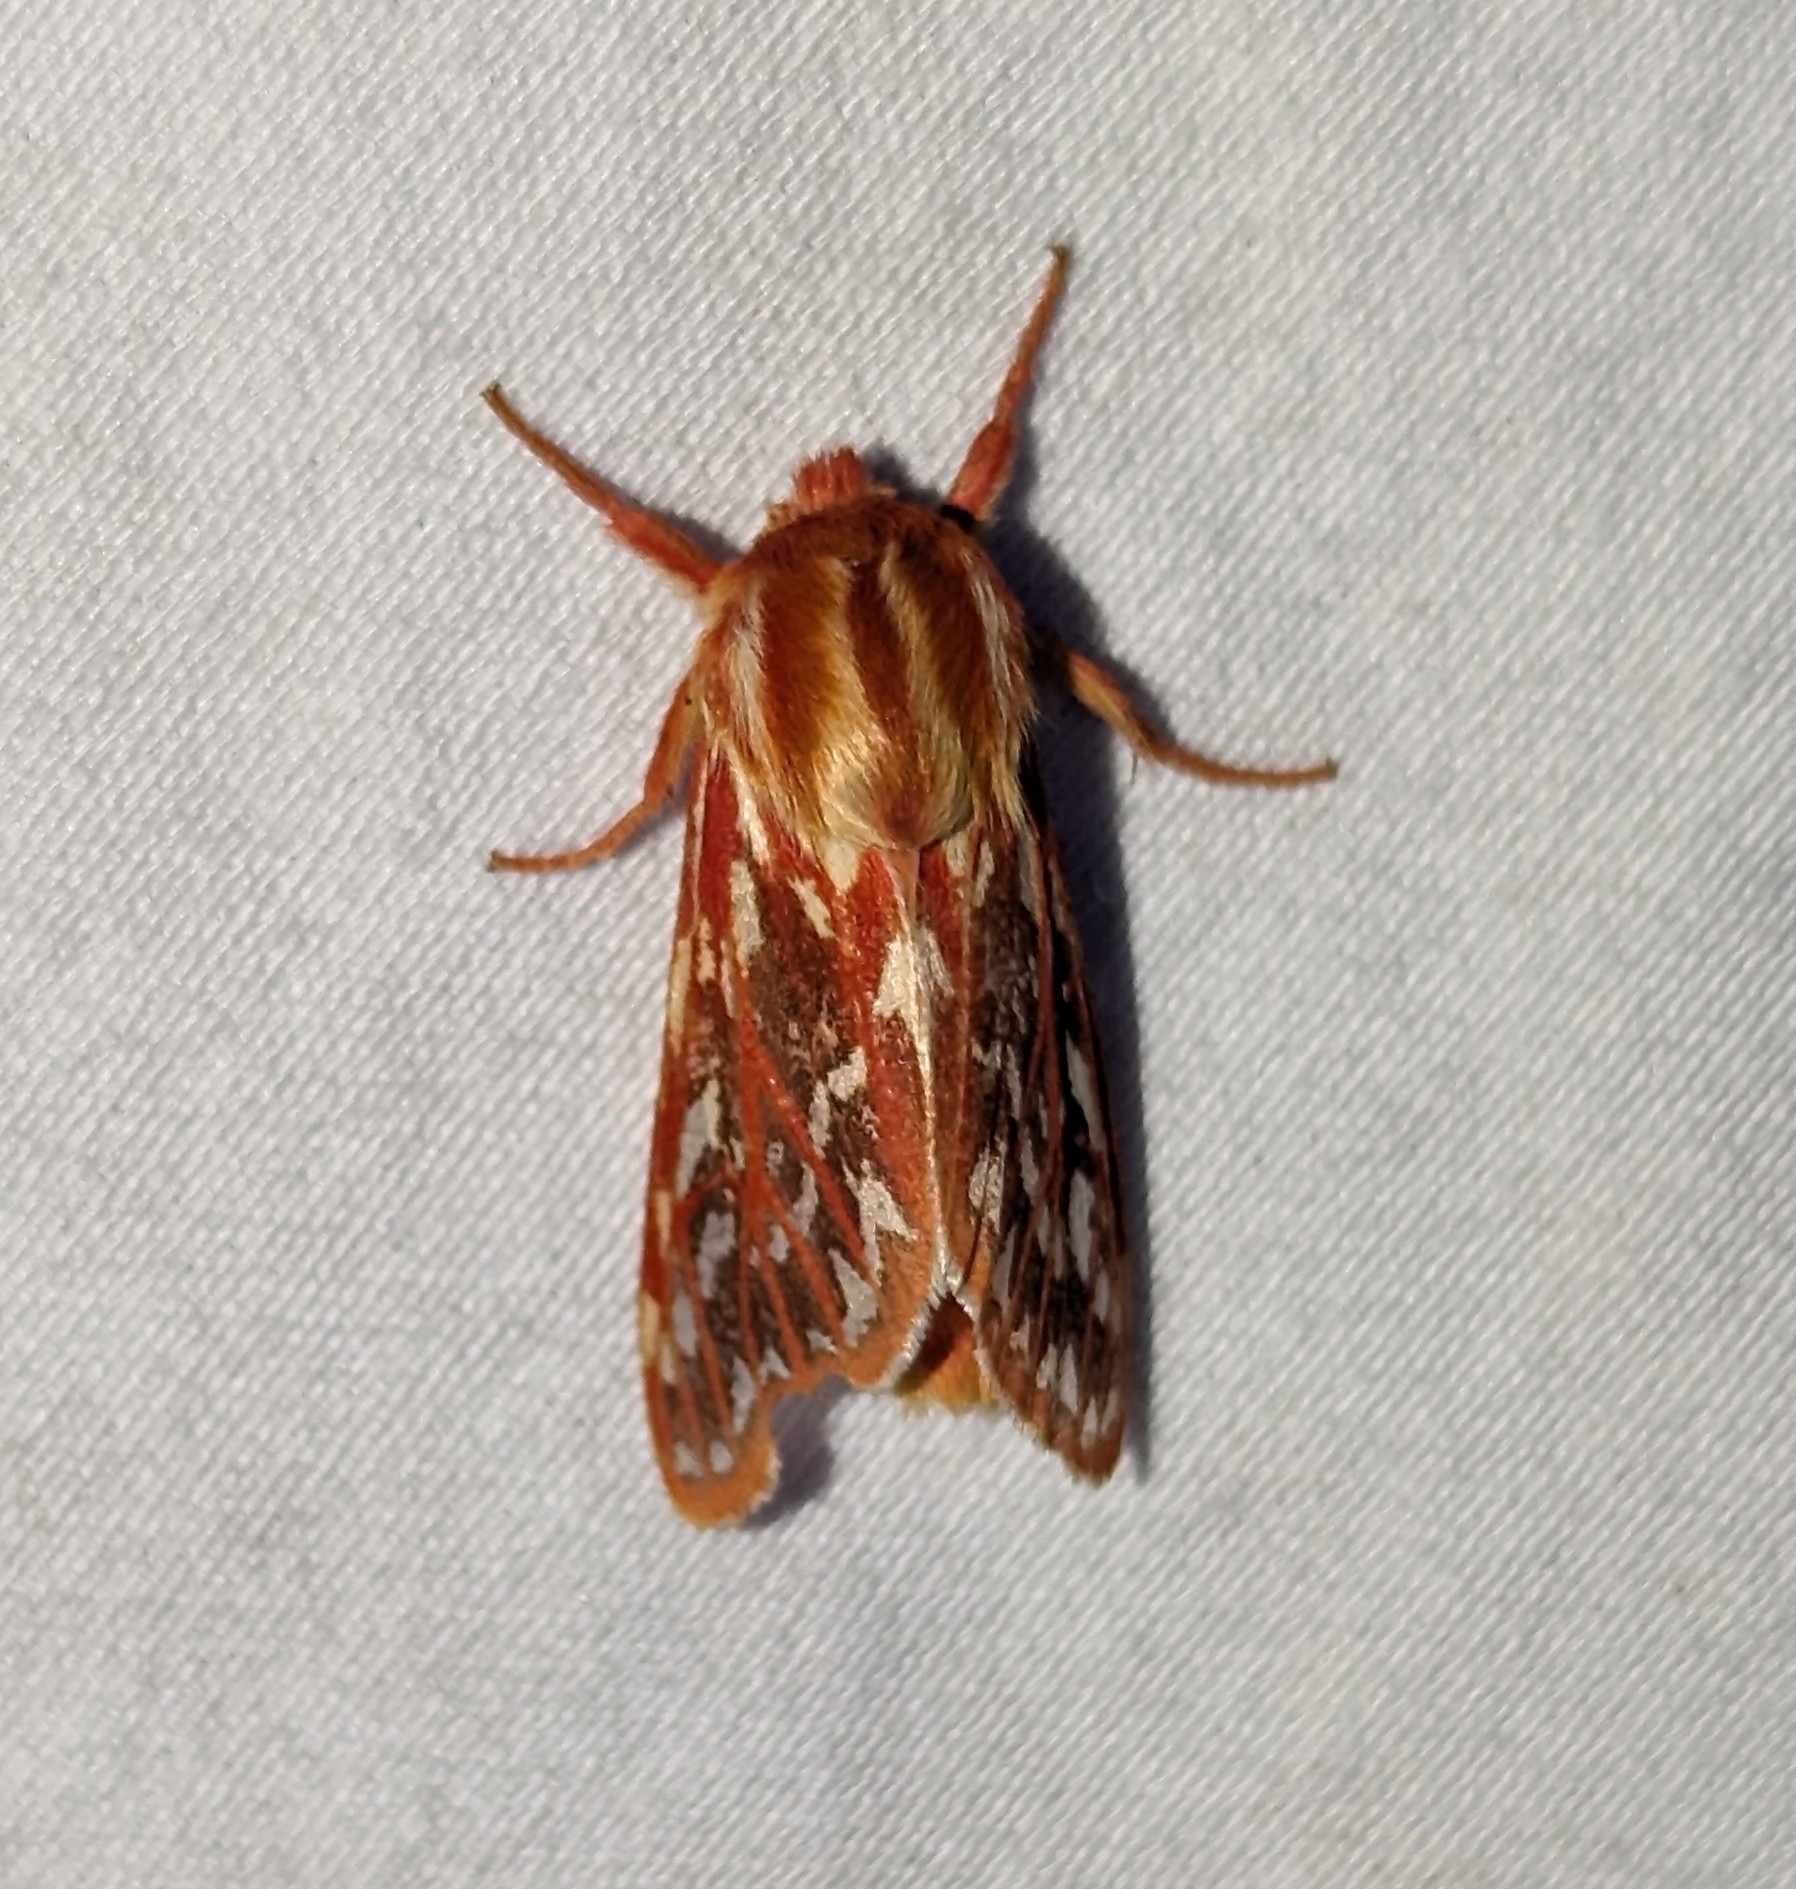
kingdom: Animalia
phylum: Arthropoda
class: Insecta
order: Lepidoptera
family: Erebidae
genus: Lophocampa
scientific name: Lophocampa roseata
